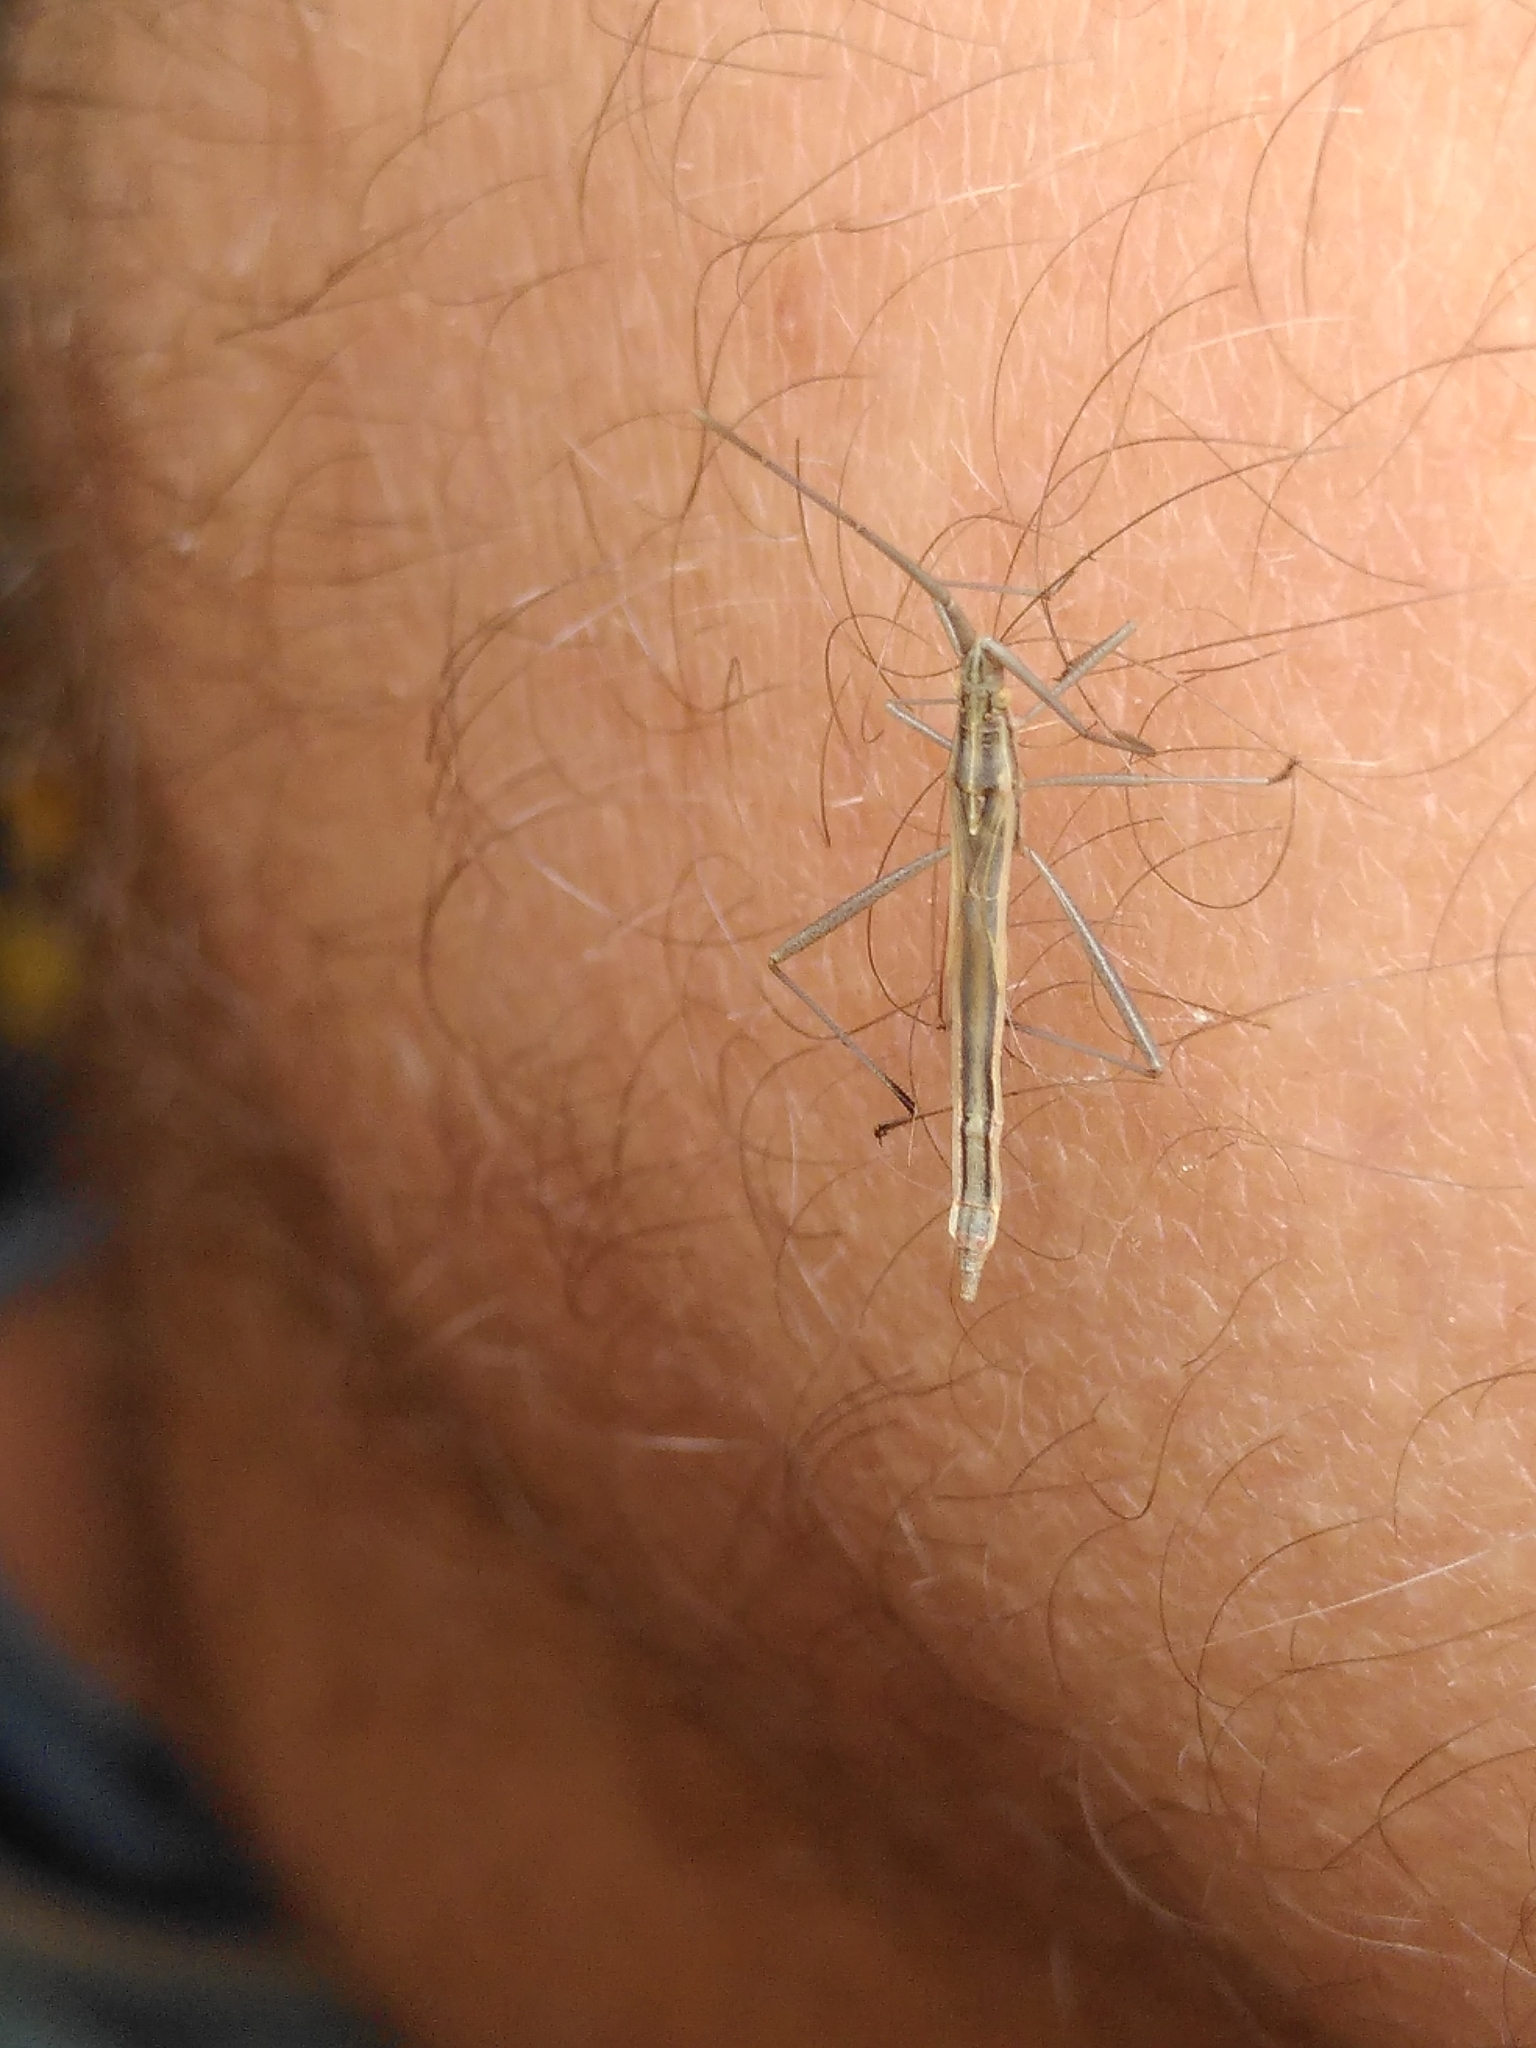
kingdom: Animalia
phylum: Arthropoda
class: Insecta
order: Hemiptera
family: Rhopalidae
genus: Chorosoma
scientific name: Chorosoma schillingii
